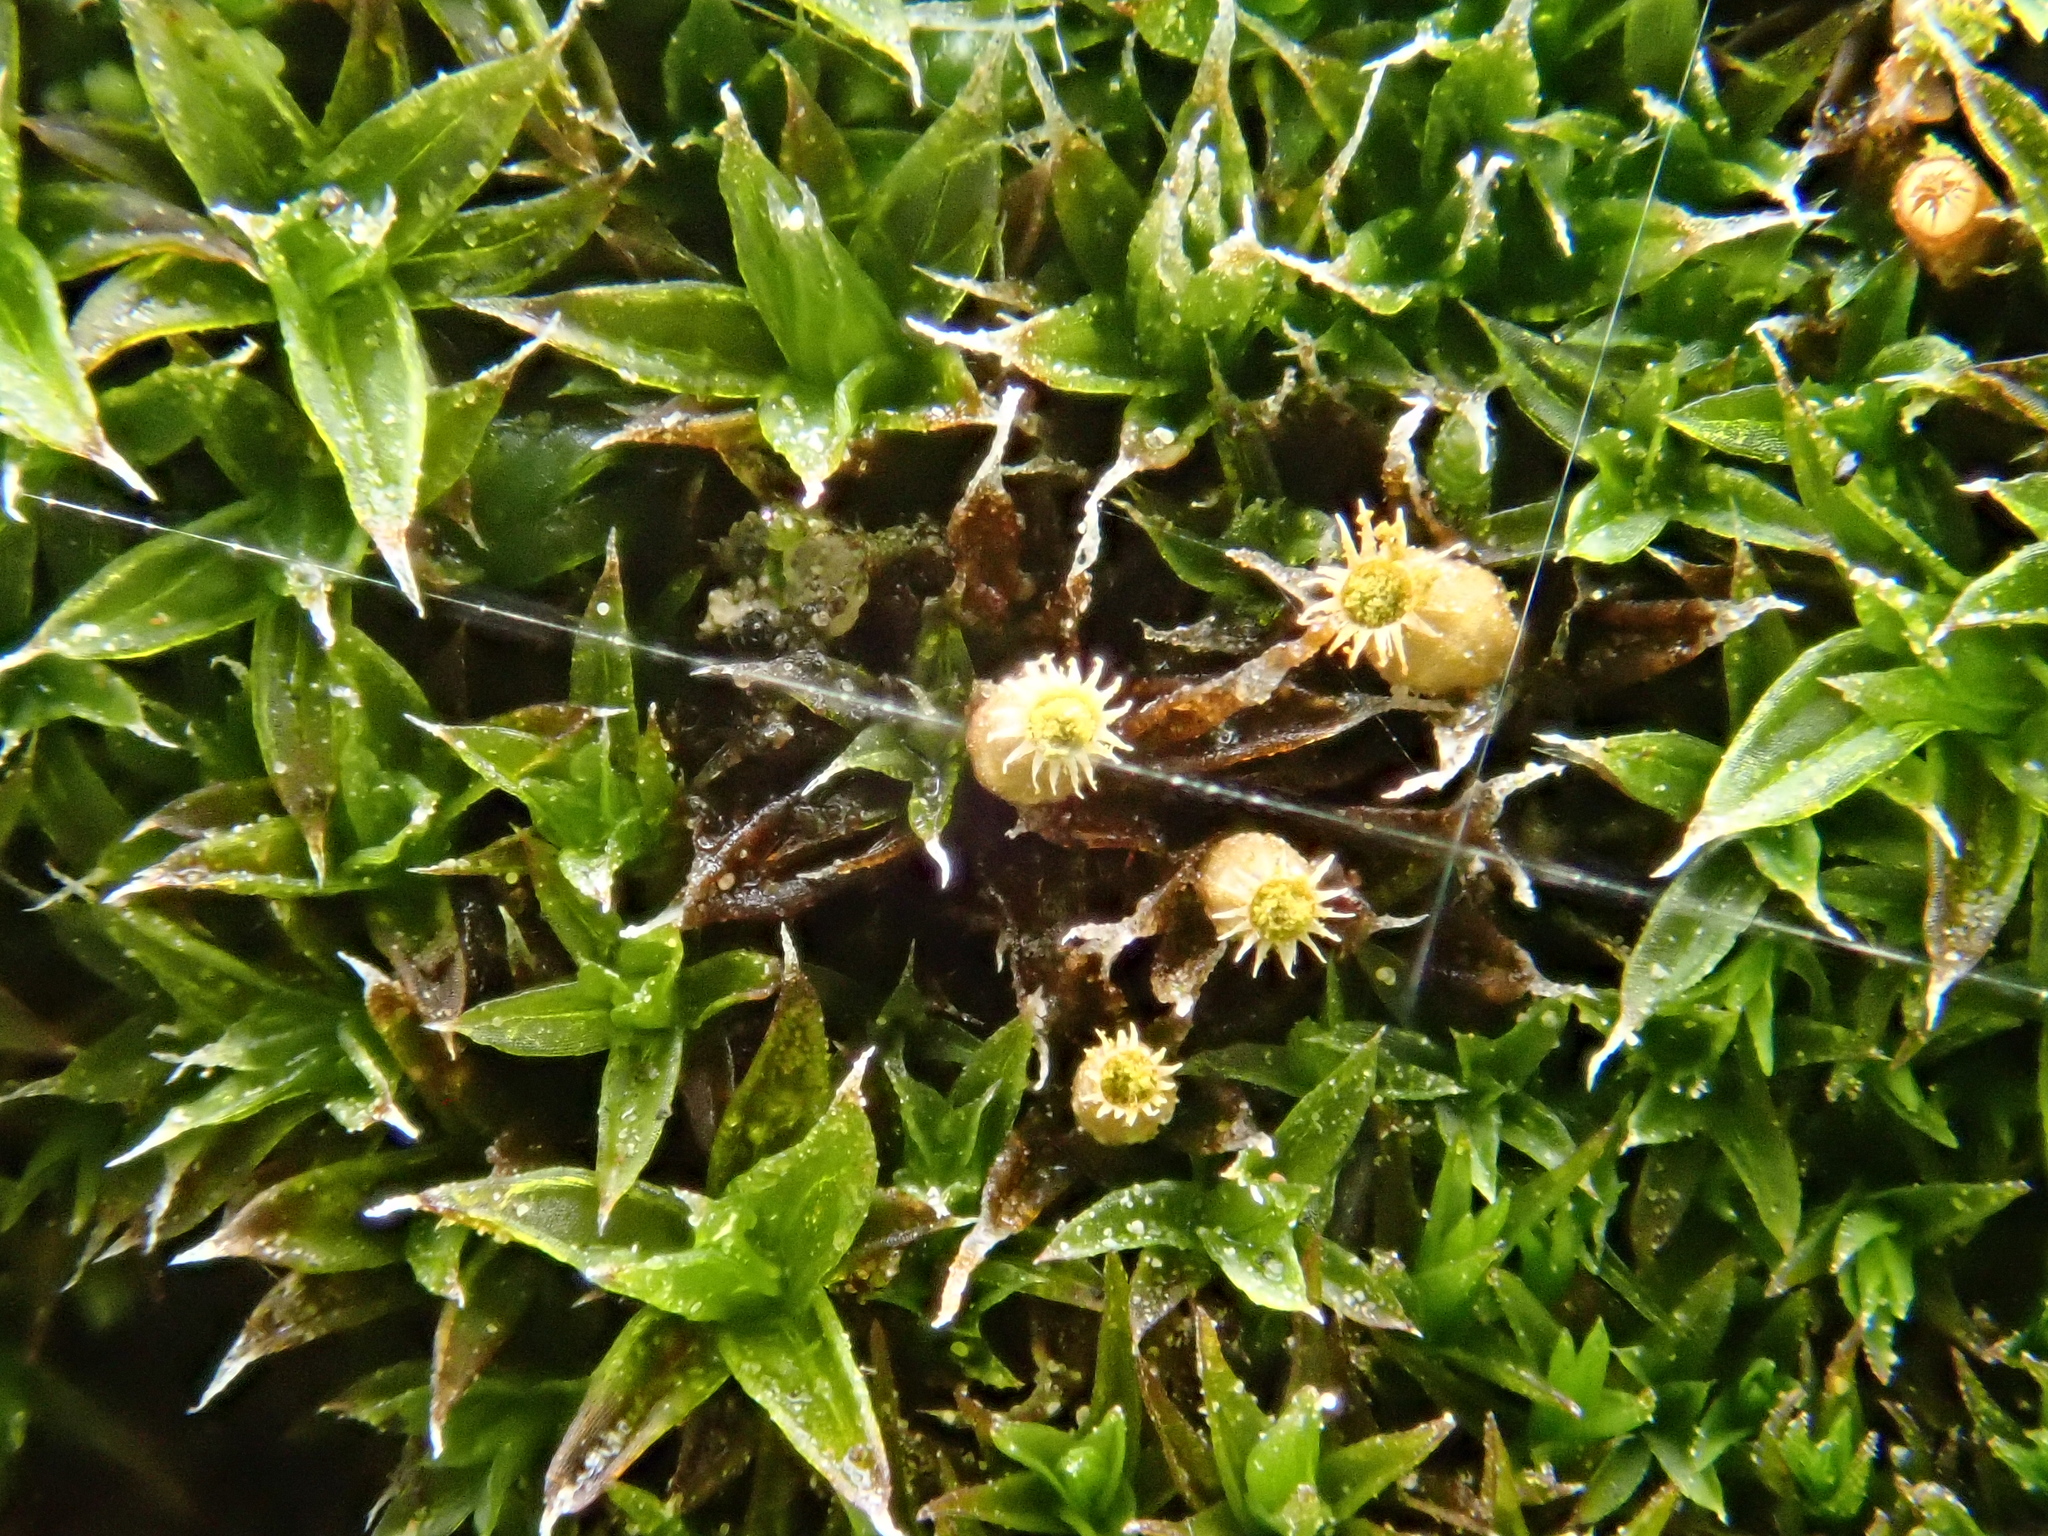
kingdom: Plantae
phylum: Bryophyta
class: Bryopsida
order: Orthotrichales
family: Orthotrichaceae
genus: Orthotrichum
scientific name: Orthotrichum diaphanum
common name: White-tipped bristle-moss
